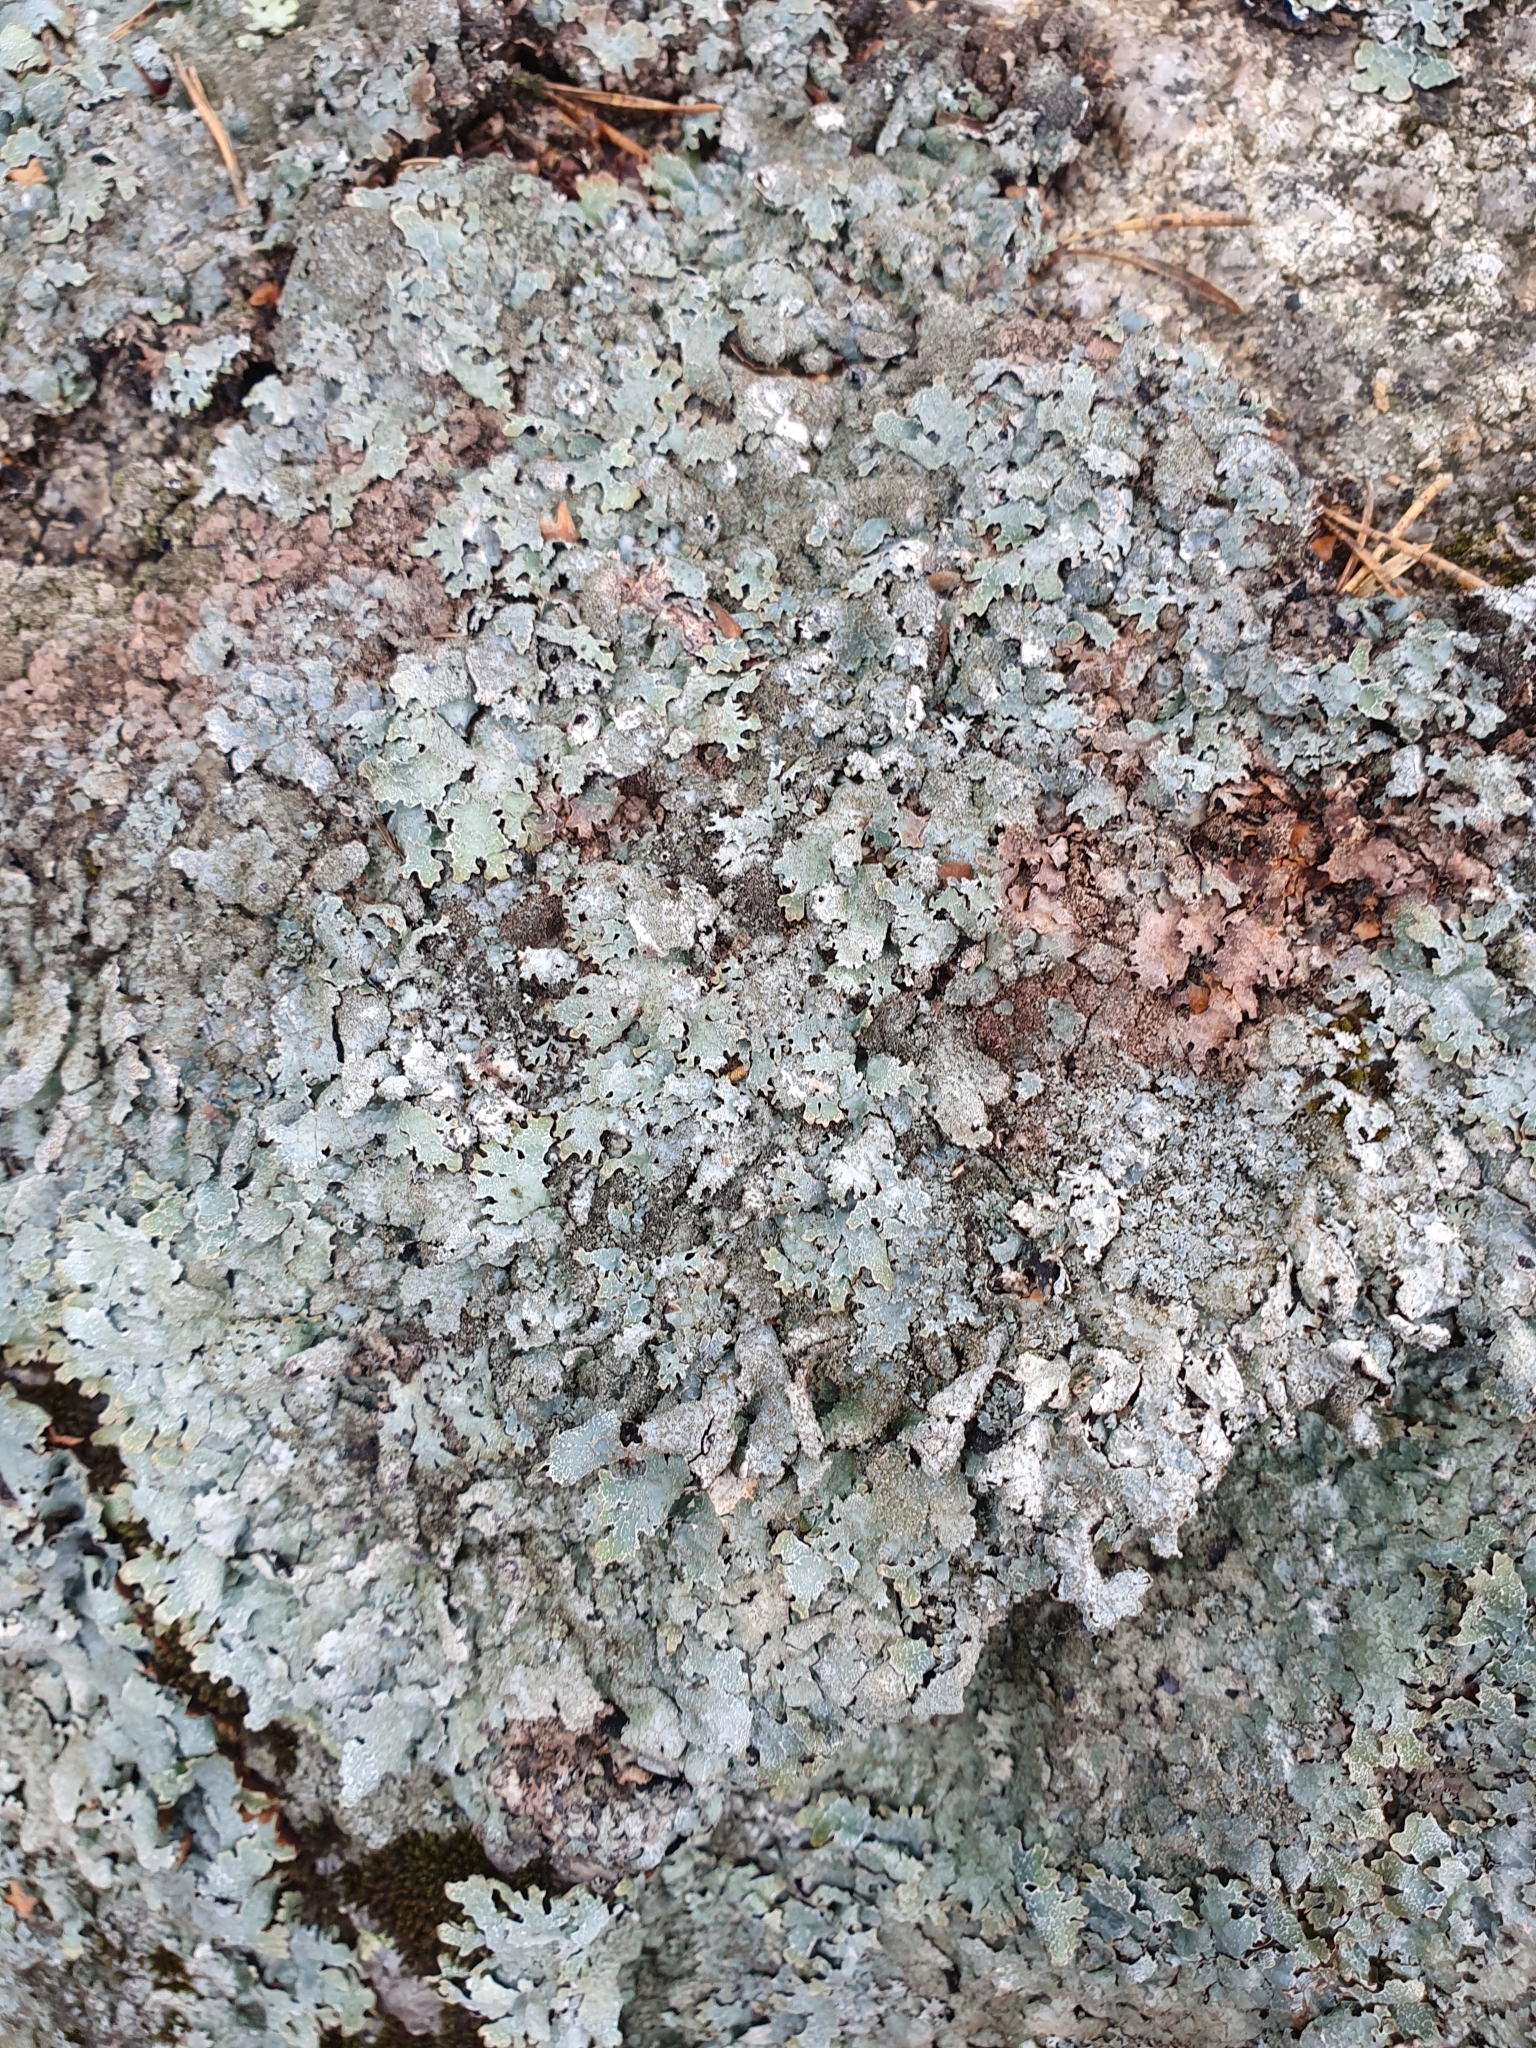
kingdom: Fungi
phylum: Ascomycota
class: Lecanoromycetes
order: Lecanorales
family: Parmeliaceae
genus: Parmelia
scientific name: Parmelia saxatilis
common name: Salted shield lichen
